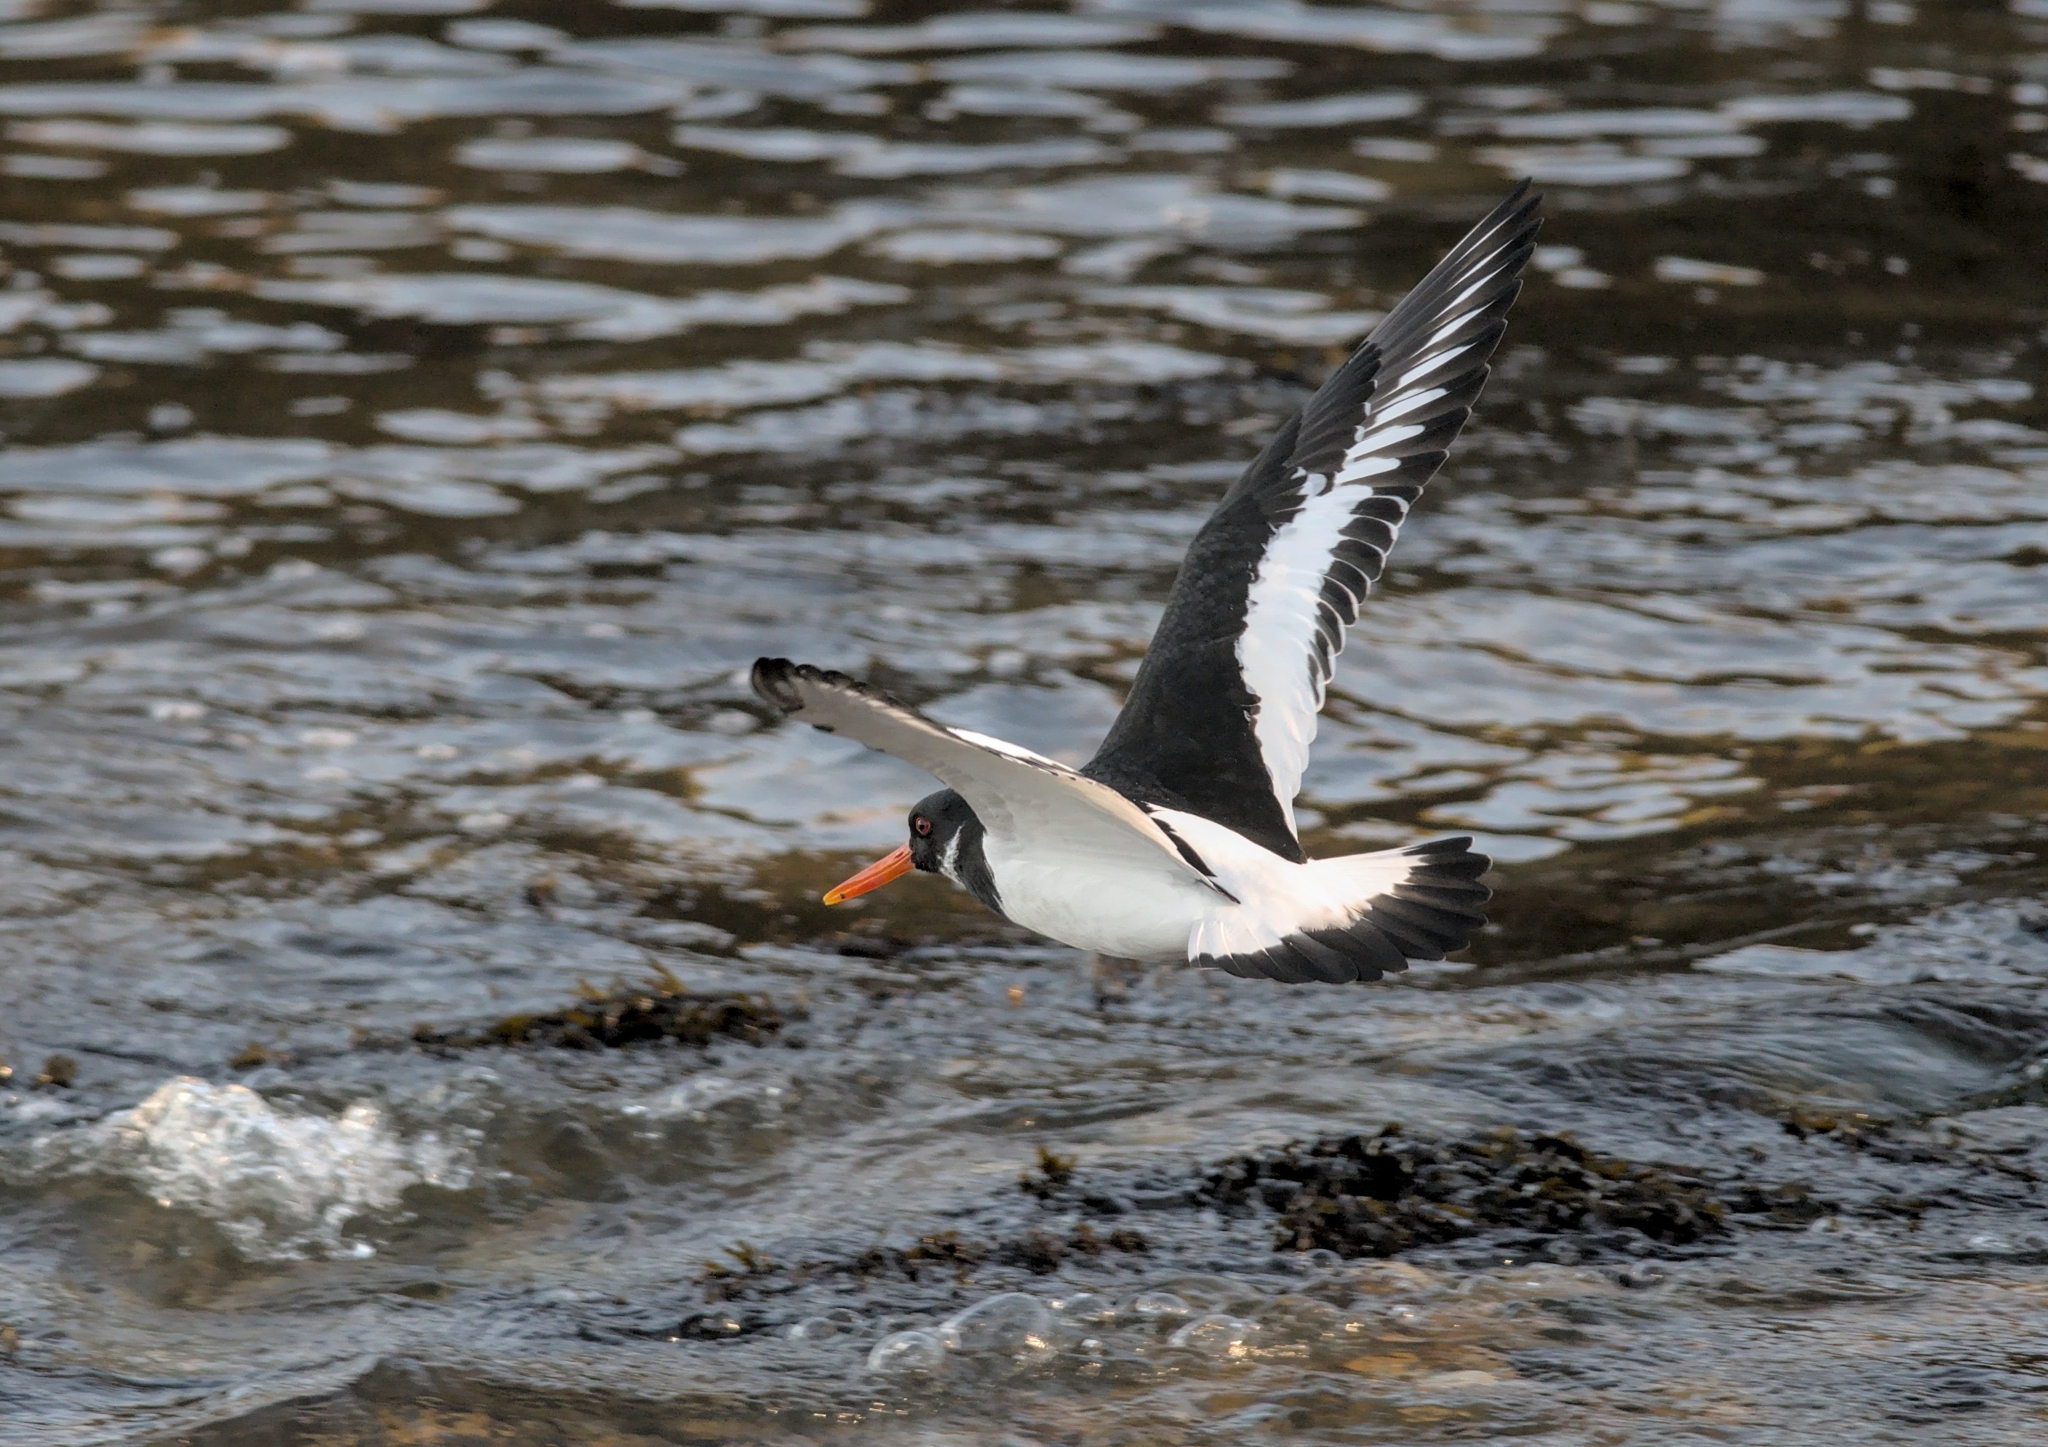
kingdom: Animalia
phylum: Chordata
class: Aves
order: Charadriiformes
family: Haematopodidae
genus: Haematopus
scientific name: Haematopus ostralegus
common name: Eurasian oystercatcher
